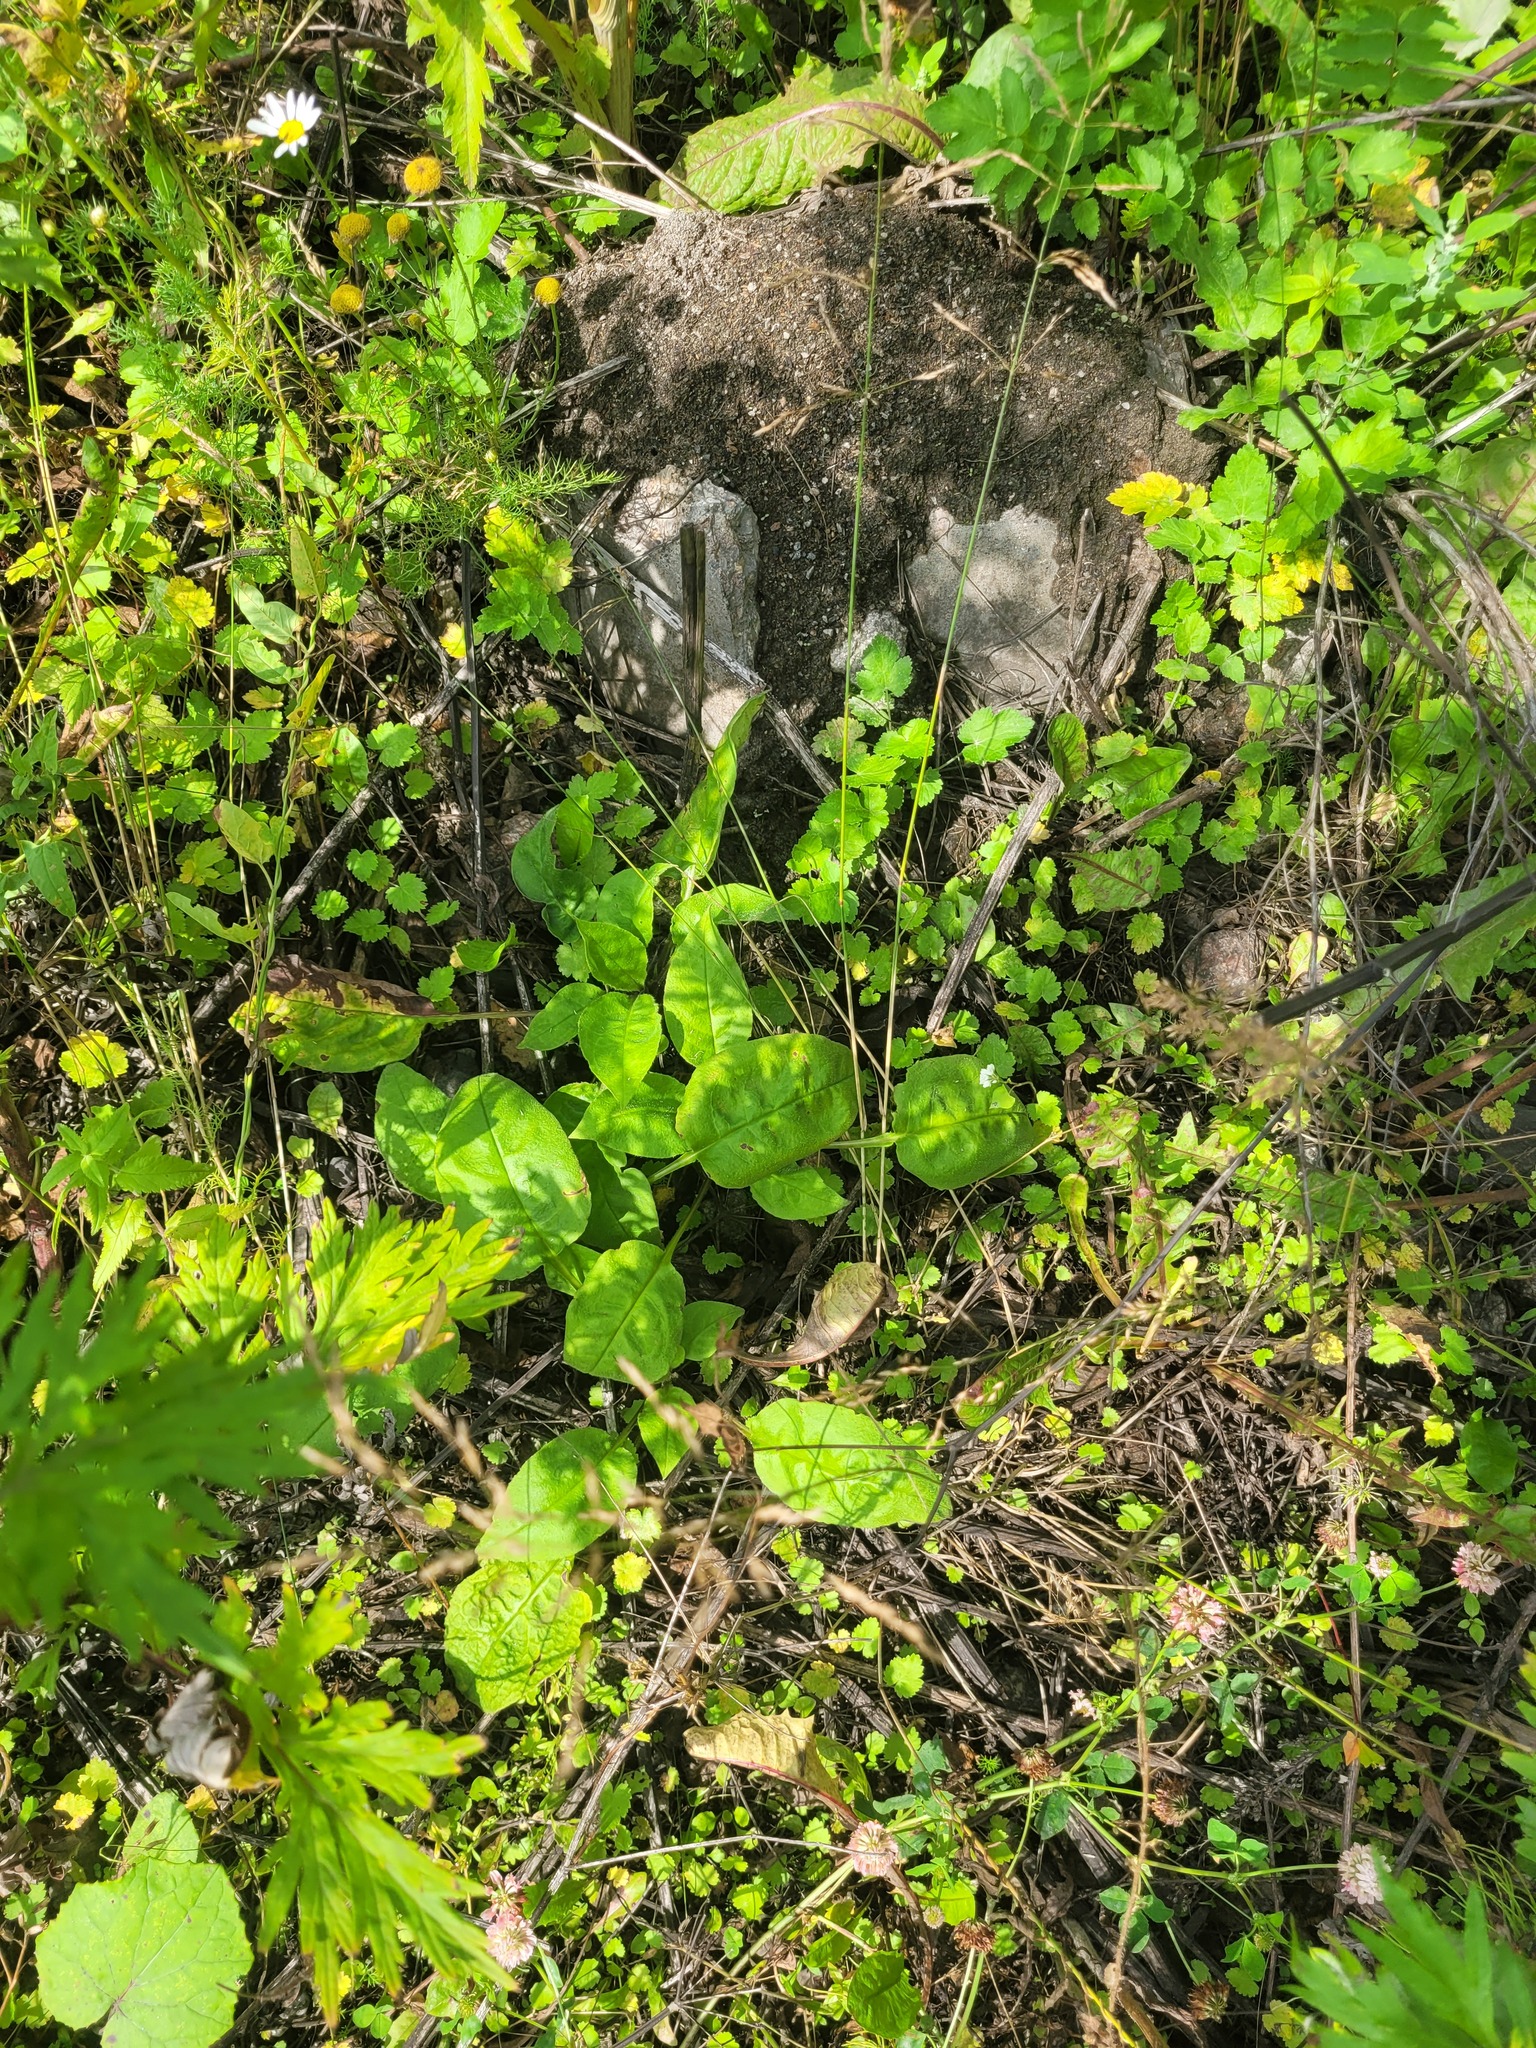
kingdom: Plantae
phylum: Tracheophyta
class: Magnoliopsida
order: Boraginales
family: Boraginaceae
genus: Pulmonaria
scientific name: Pulmonaria obscura
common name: Suffolk lungwort
